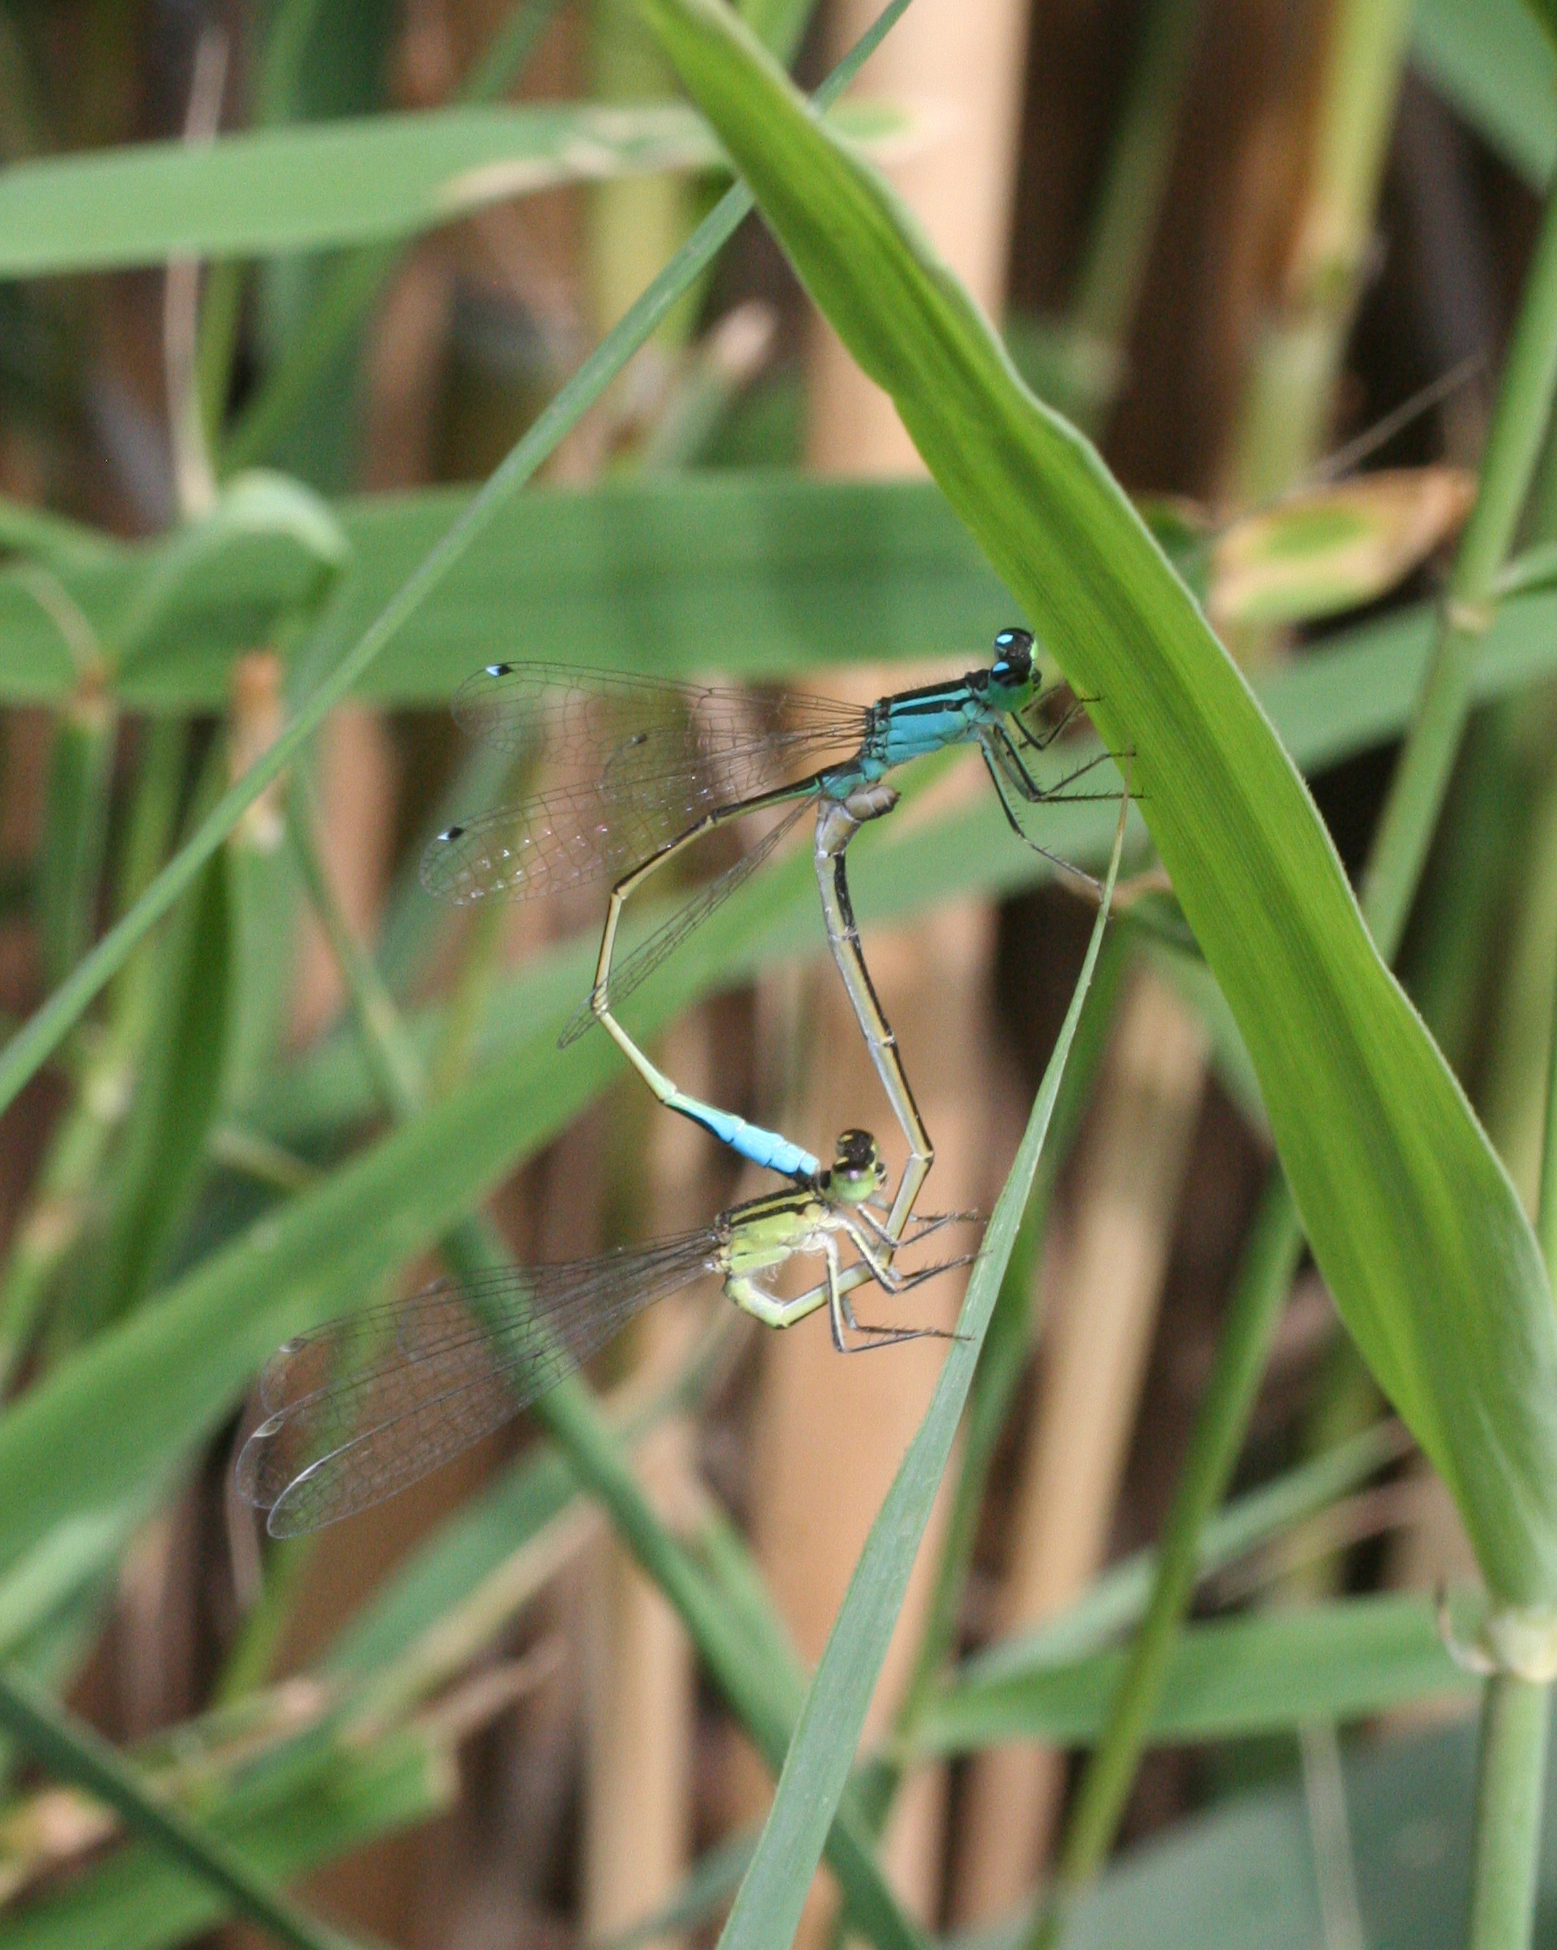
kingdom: Animalia
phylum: Arthropoda
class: Insecta
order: Odonata
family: Coenagrionidae
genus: Ischnura
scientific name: Ischnura elegans
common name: Blue-tailed damselfly
